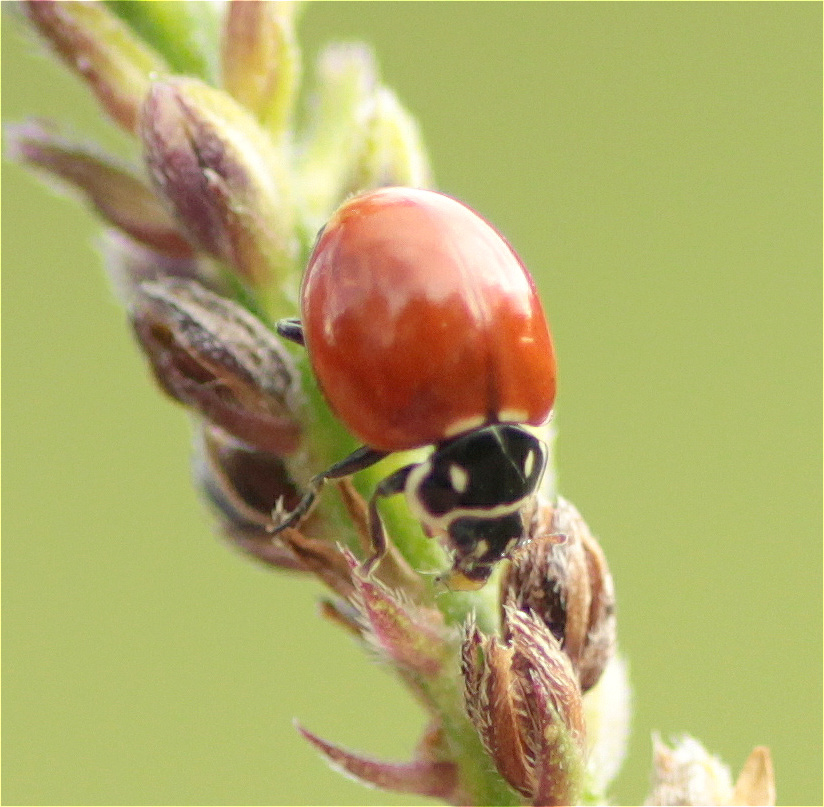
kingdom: Animalia
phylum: Arthropoda
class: Insecta
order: Coleoptera
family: Coccinellidae
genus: Cycloneda
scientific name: Cycloneda emarginata
